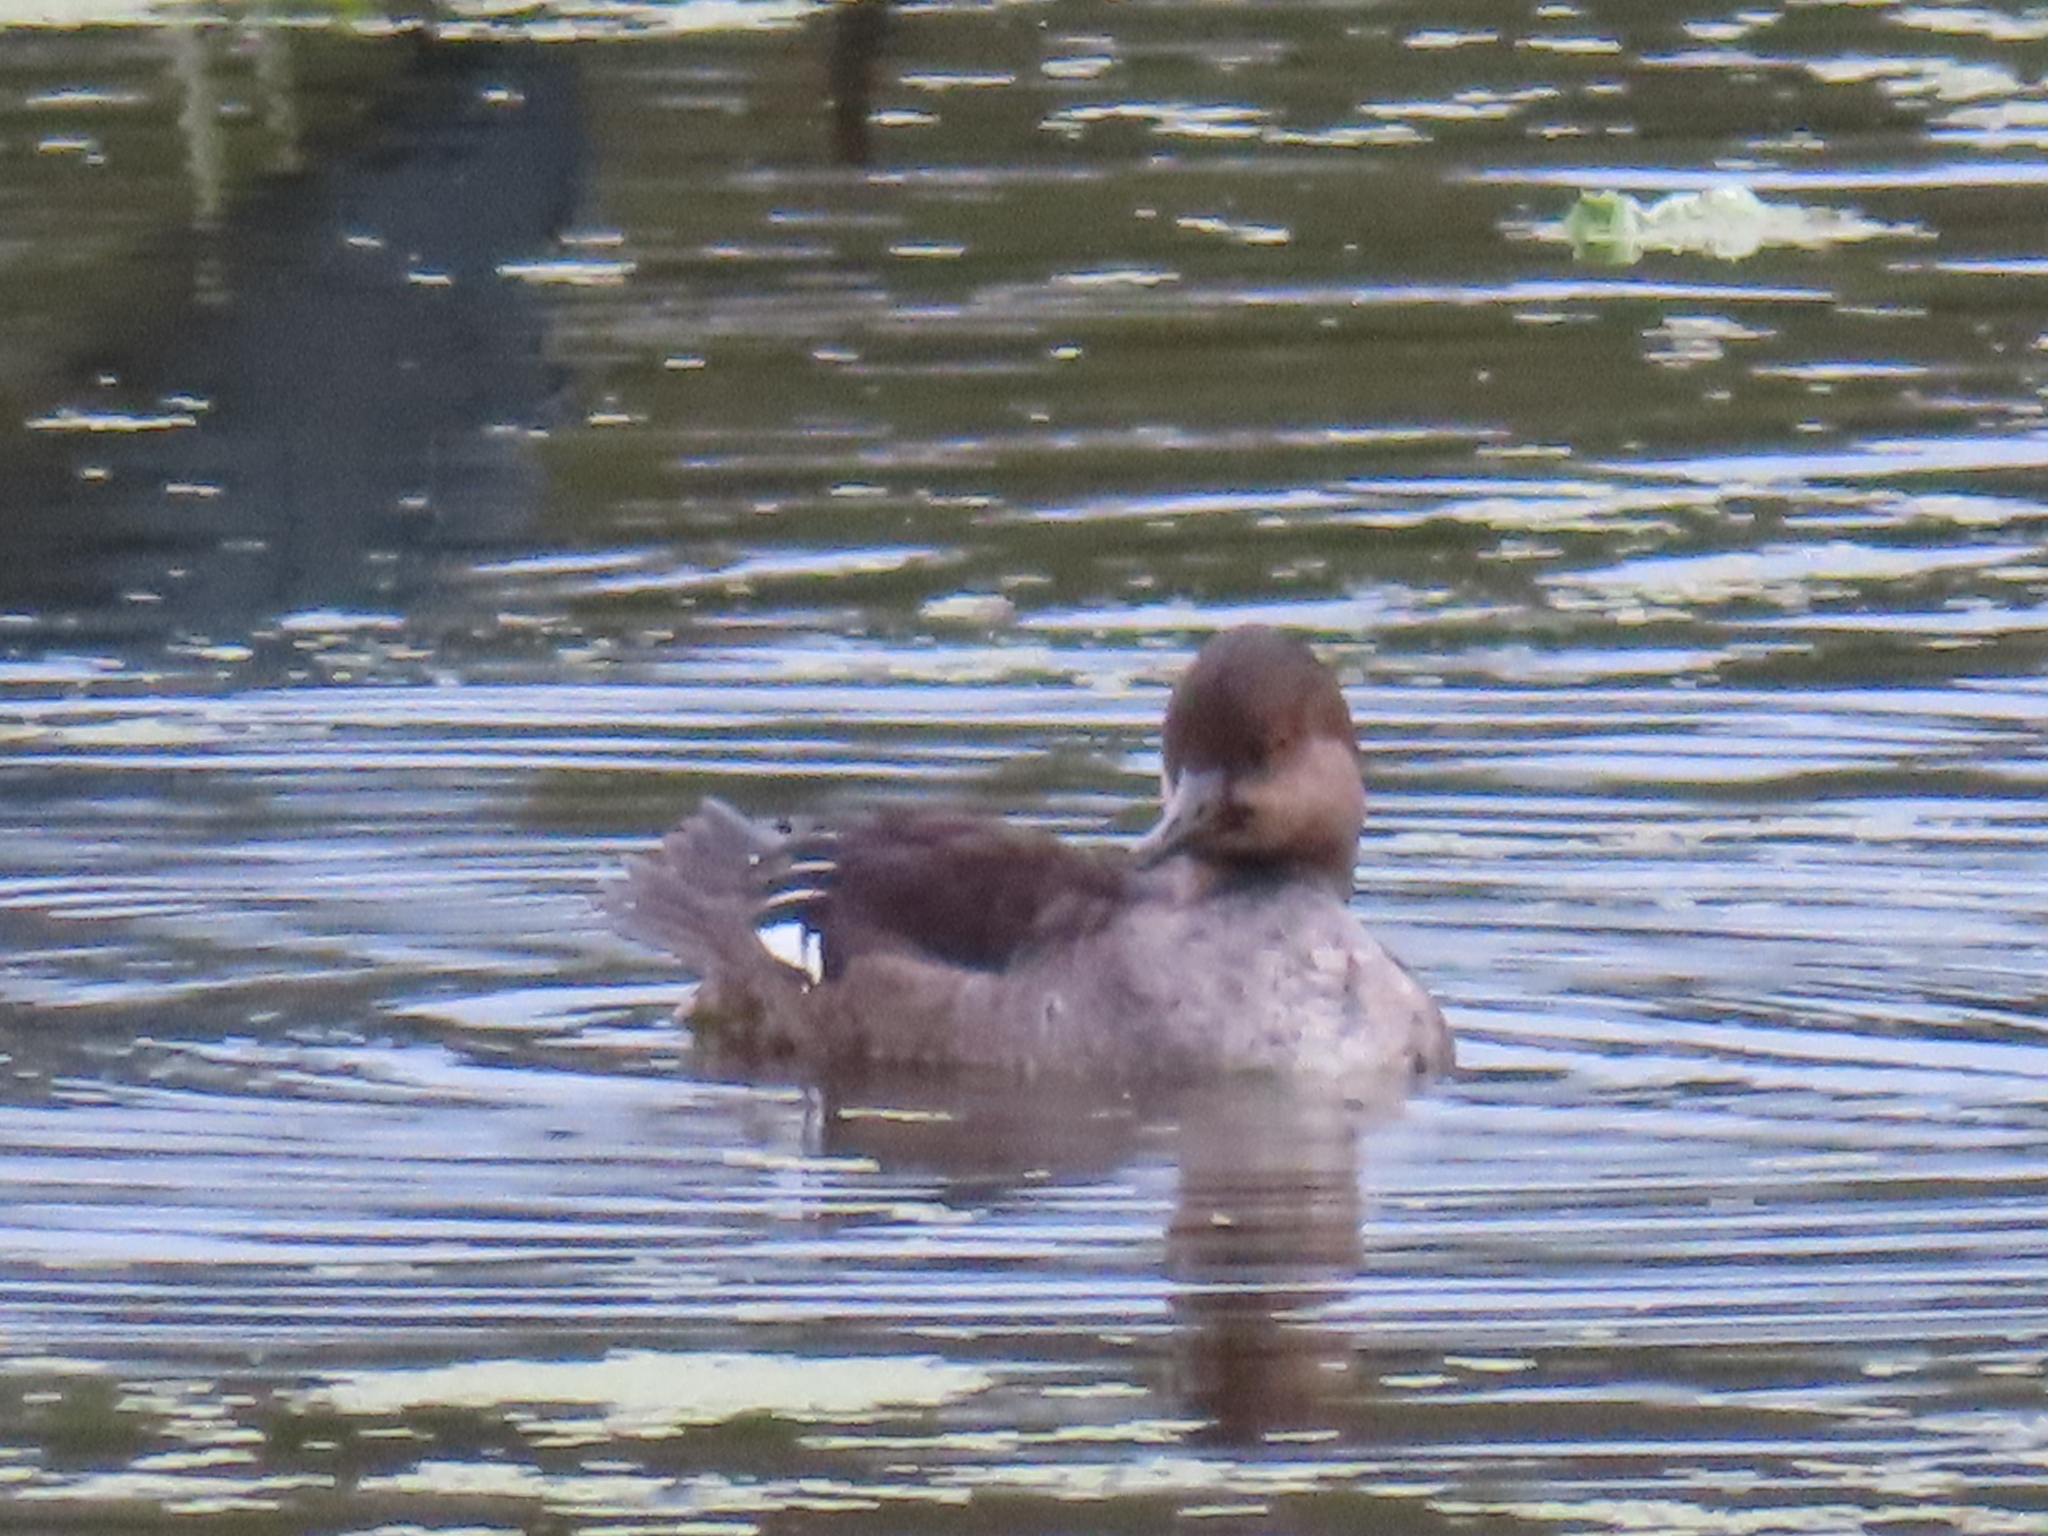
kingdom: Animalia
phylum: Chordata
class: Aves
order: Anseriformes
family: Anatidae
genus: Lophodytes
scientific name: Lophodytes cucullatus
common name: Hooded merganser
